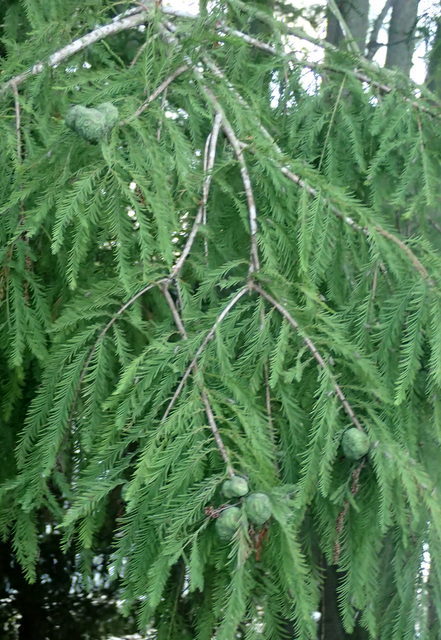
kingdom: Plantae
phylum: Tracheophyta
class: Pinopsida
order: Pinales
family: Cupressaceae
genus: Taxodium
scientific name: Taxodium distichum
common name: Bald cypress
